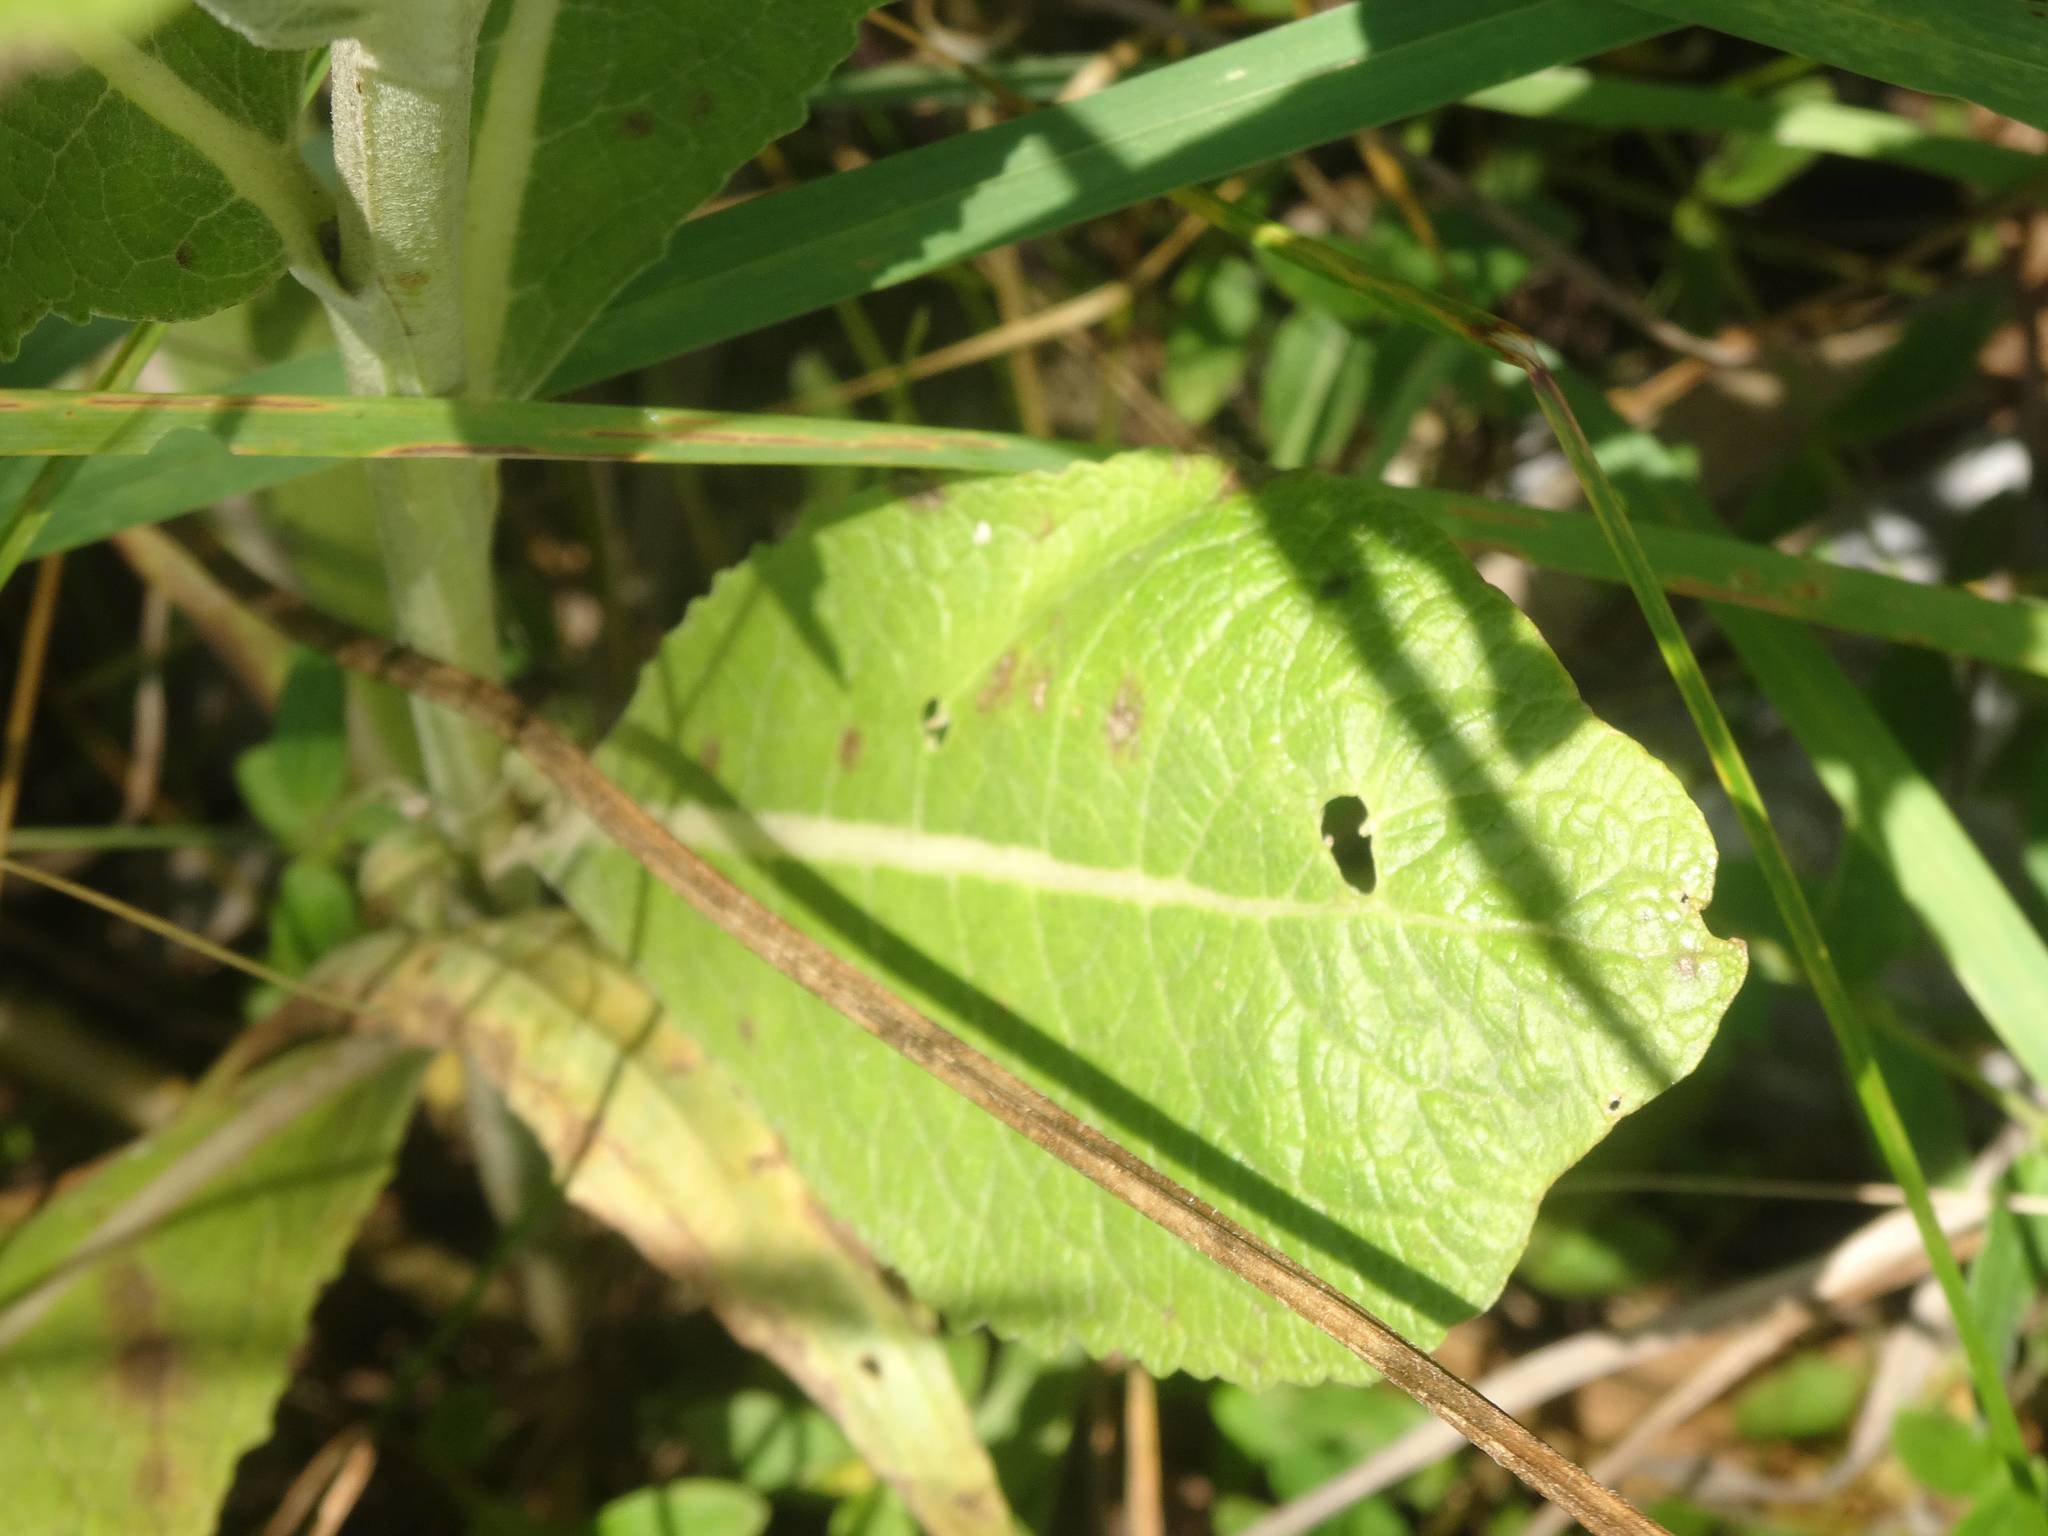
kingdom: Plantae
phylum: Tracheophyta
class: Magnoliopsida
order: Lamiales
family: Scrophulariaceae
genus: Verbascum
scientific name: Verbascum lychnitis
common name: White mullein
